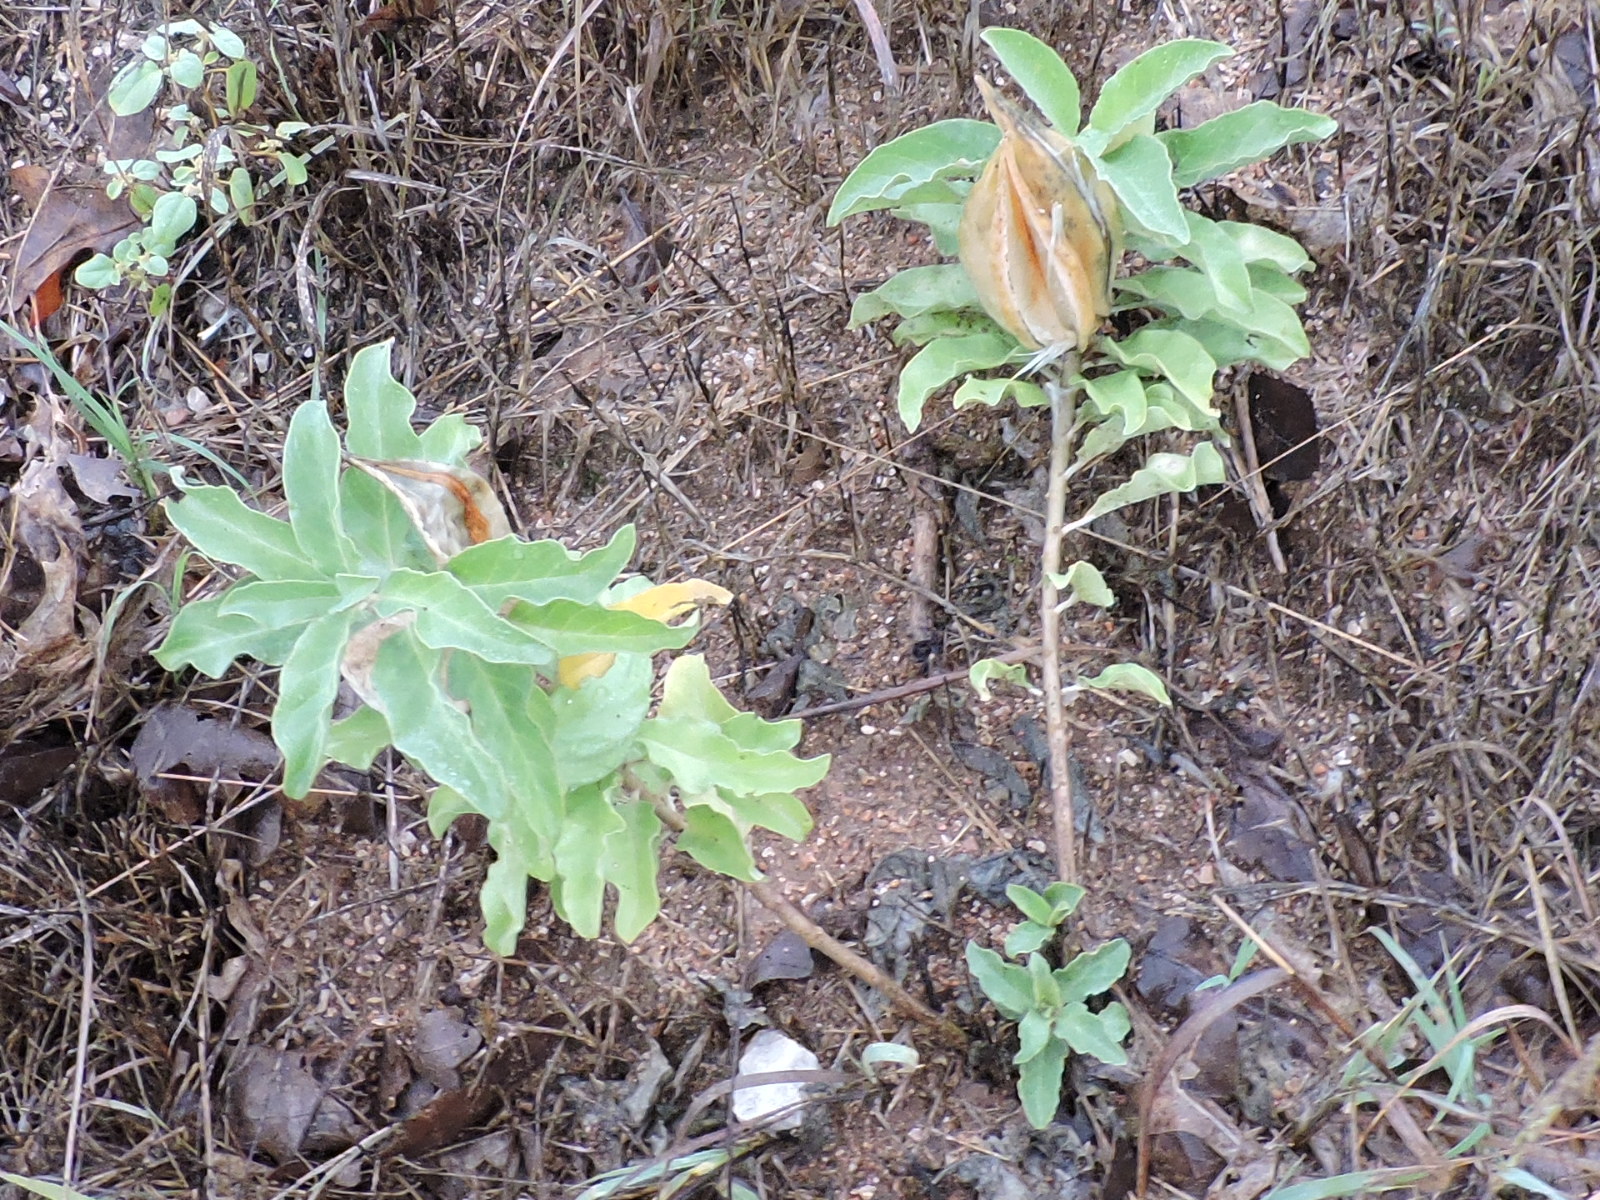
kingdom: Plantae
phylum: Tracheophyta
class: Magnoliopsida
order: Gentianales
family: Apocynaceae
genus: Asclepias
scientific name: Asclepias oenotheroides
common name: Zizotes milkweed
